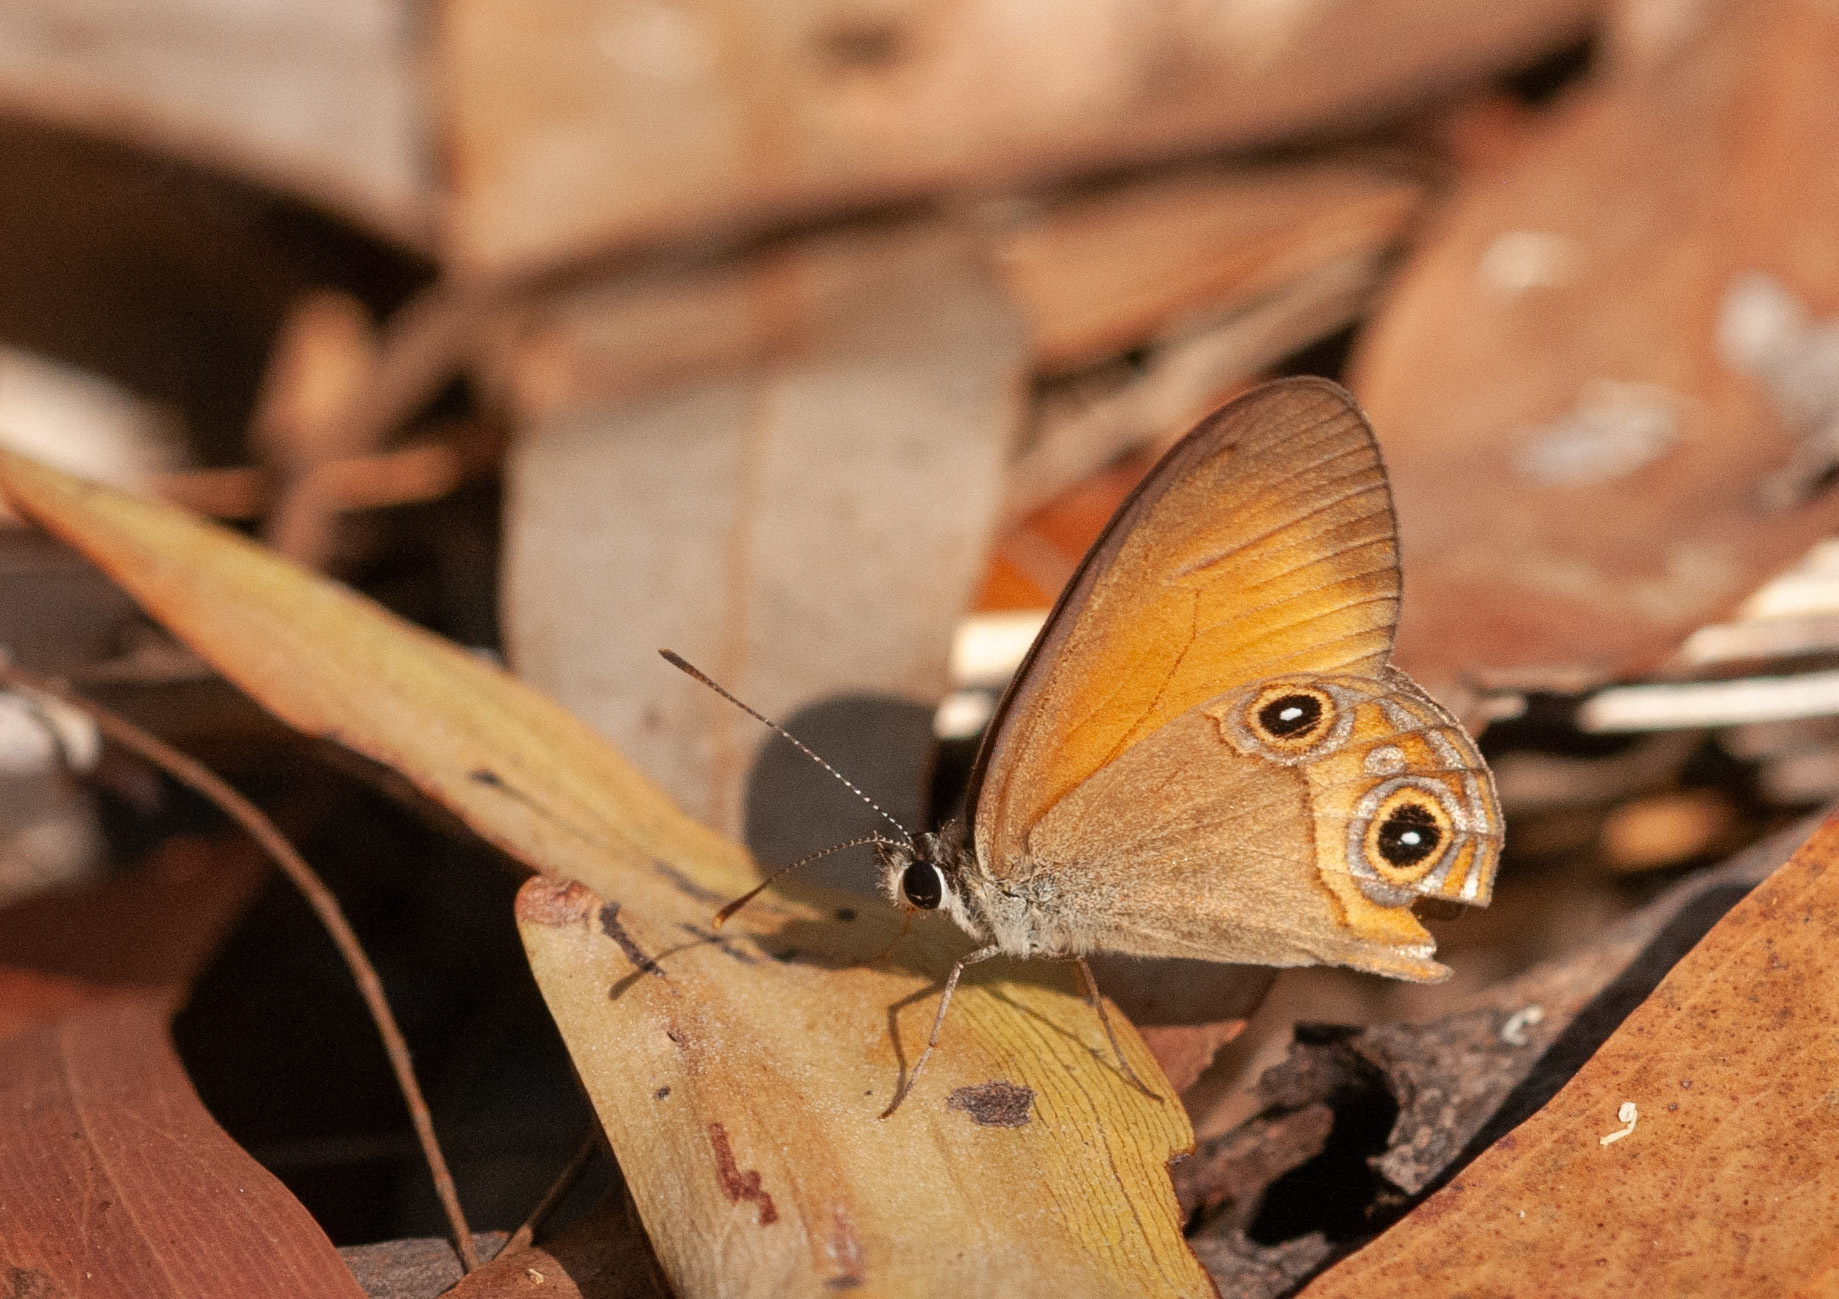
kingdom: Animalia
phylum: Arthropoda
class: Insecta
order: Lepidoptera
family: Nymphalidae
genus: Hypocysta
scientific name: Hypocysta adiante
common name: Orange ringlet
